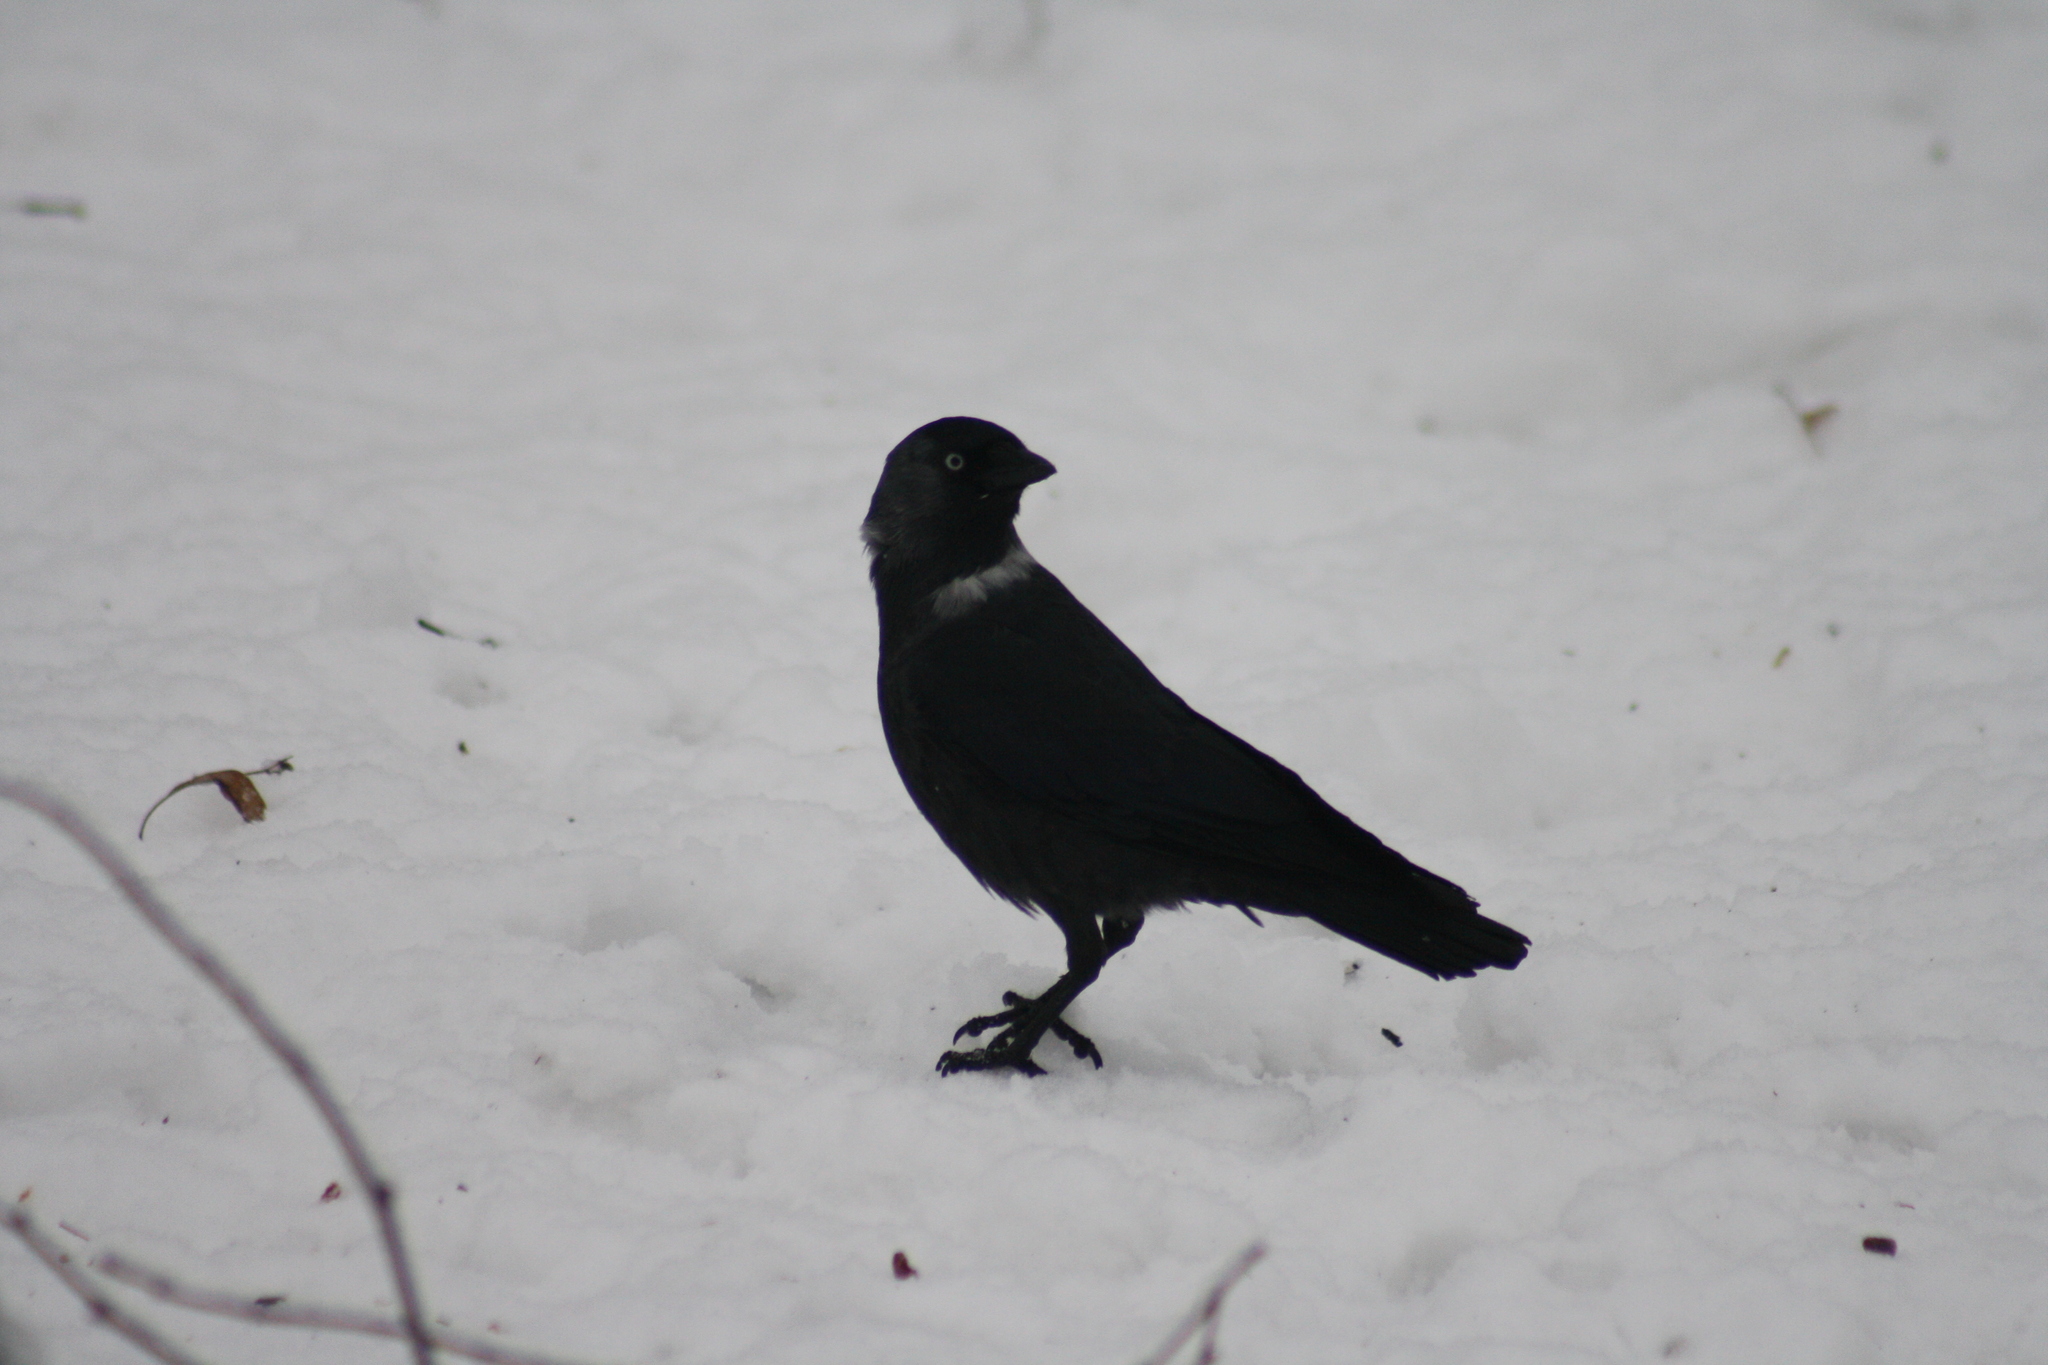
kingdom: Animalia
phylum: Chordata
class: Aves
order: Passeriformes
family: Corvidae
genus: Coloeus
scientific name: Coloeus monedula
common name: Western jackdaw
